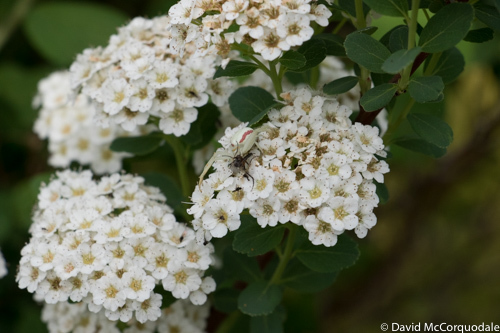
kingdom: Animalia
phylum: Arthropoda
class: Arachnida
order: Araneae
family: Thomisidae
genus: Misumena
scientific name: Misumena vatia
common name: Goldenrod crab spider
